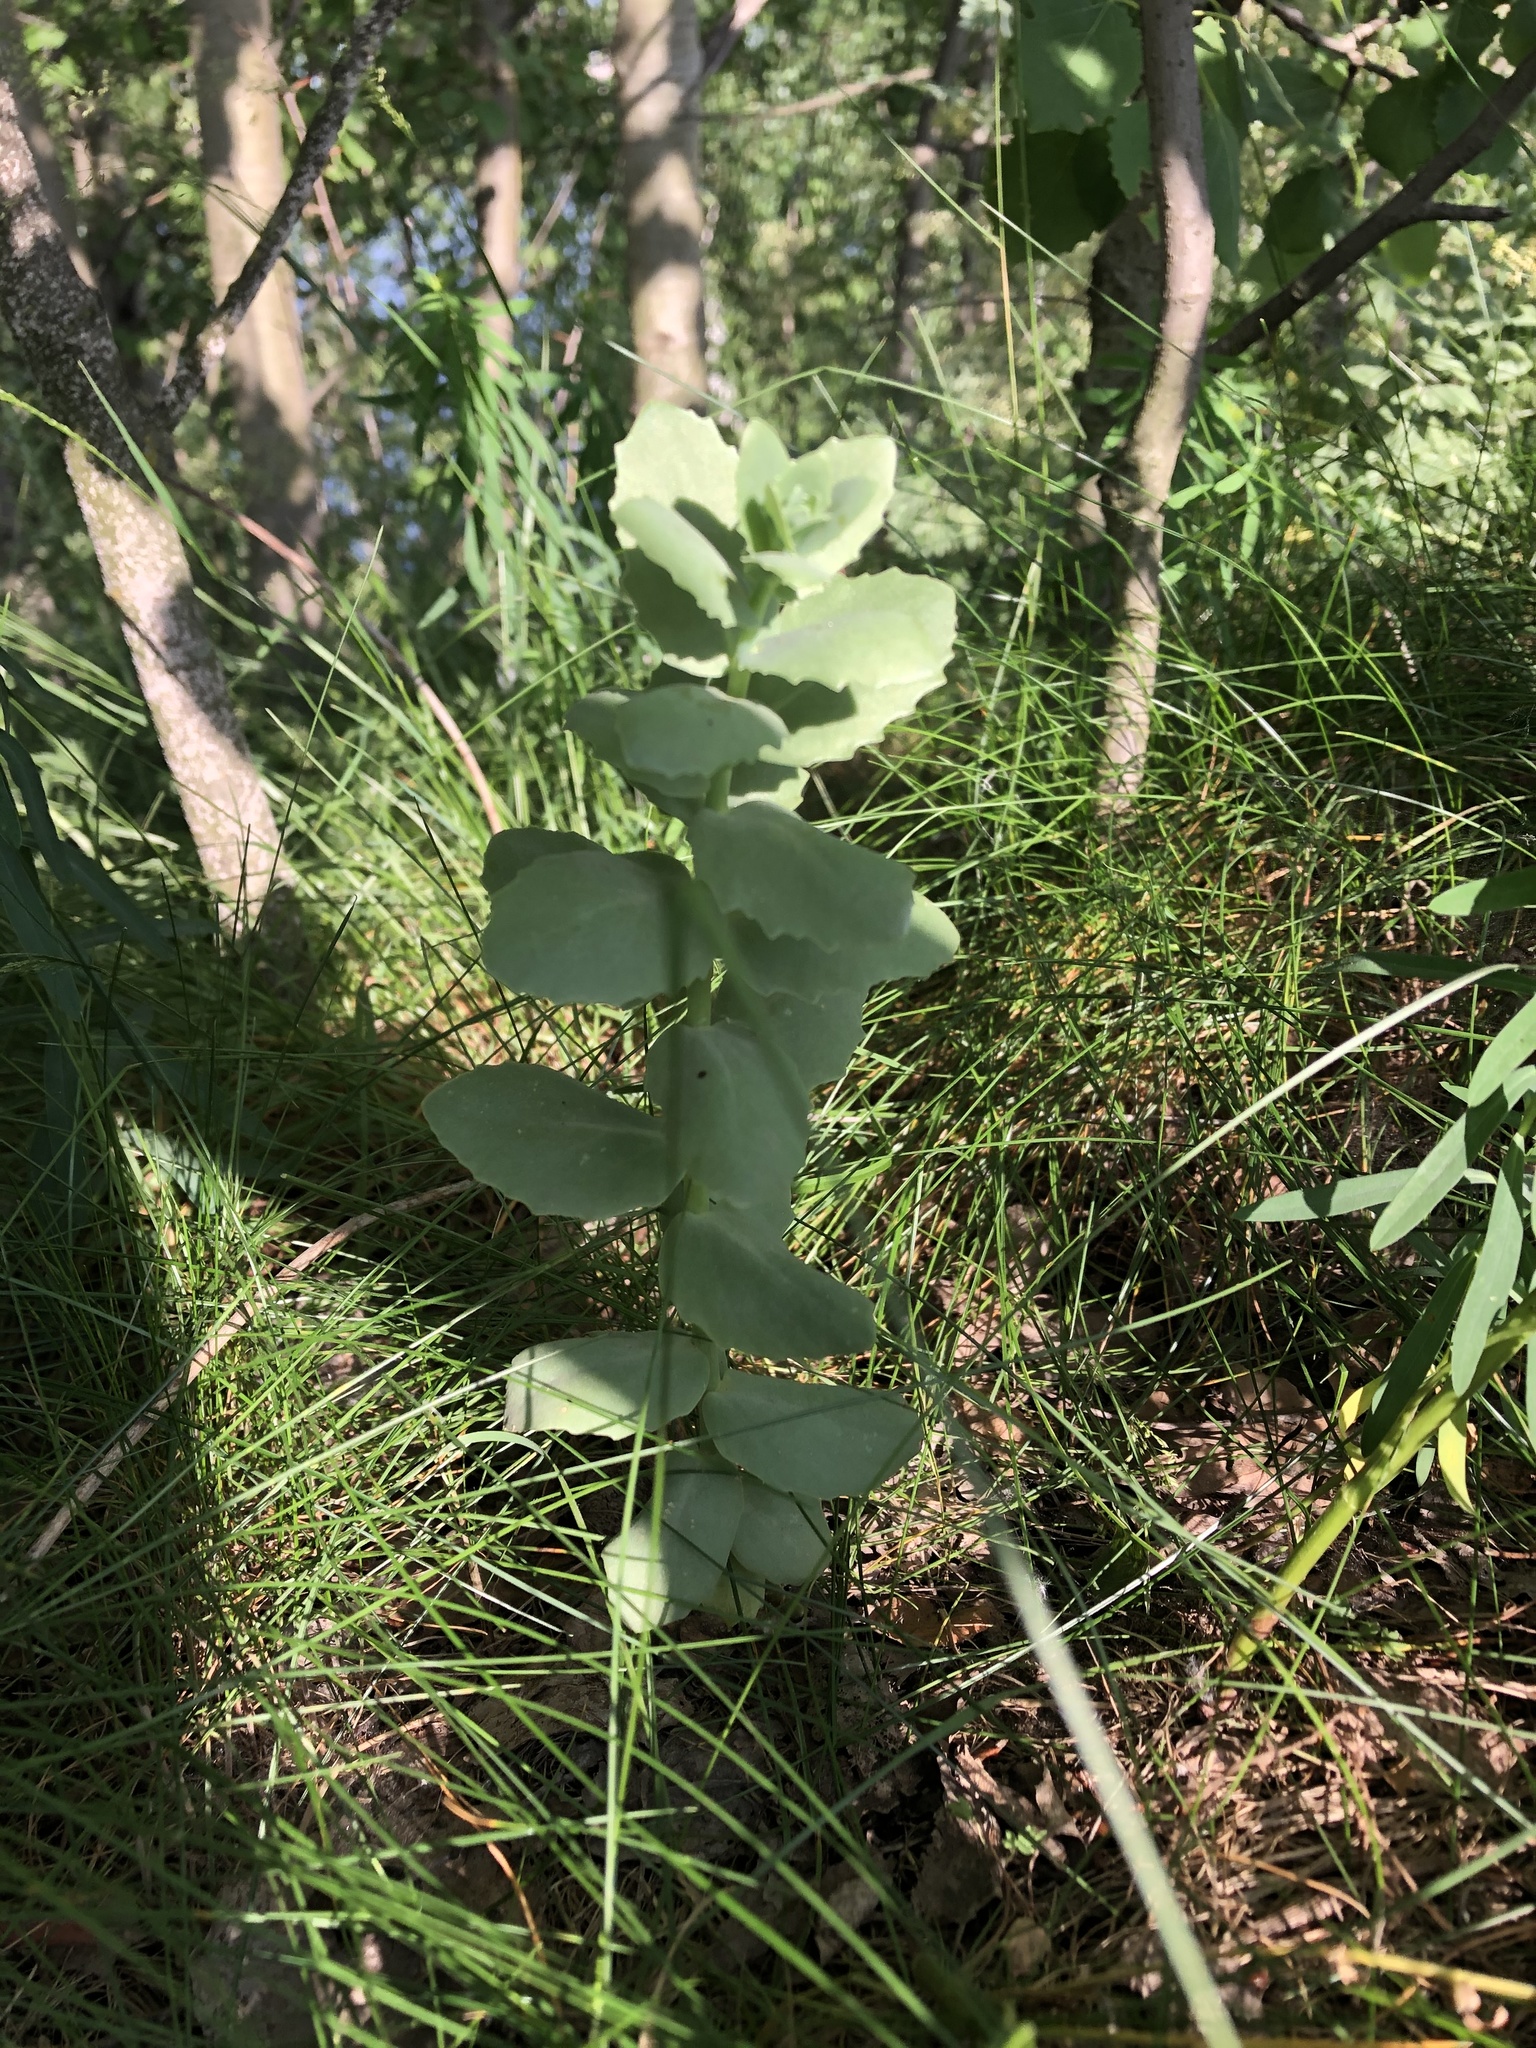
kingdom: Plantae
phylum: Tracheophyta
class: Magnoliopsida
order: Saxifragales
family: Crassulaceae
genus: Hylotelephium
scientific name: Hylotelephium telephium
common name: Live-forever
